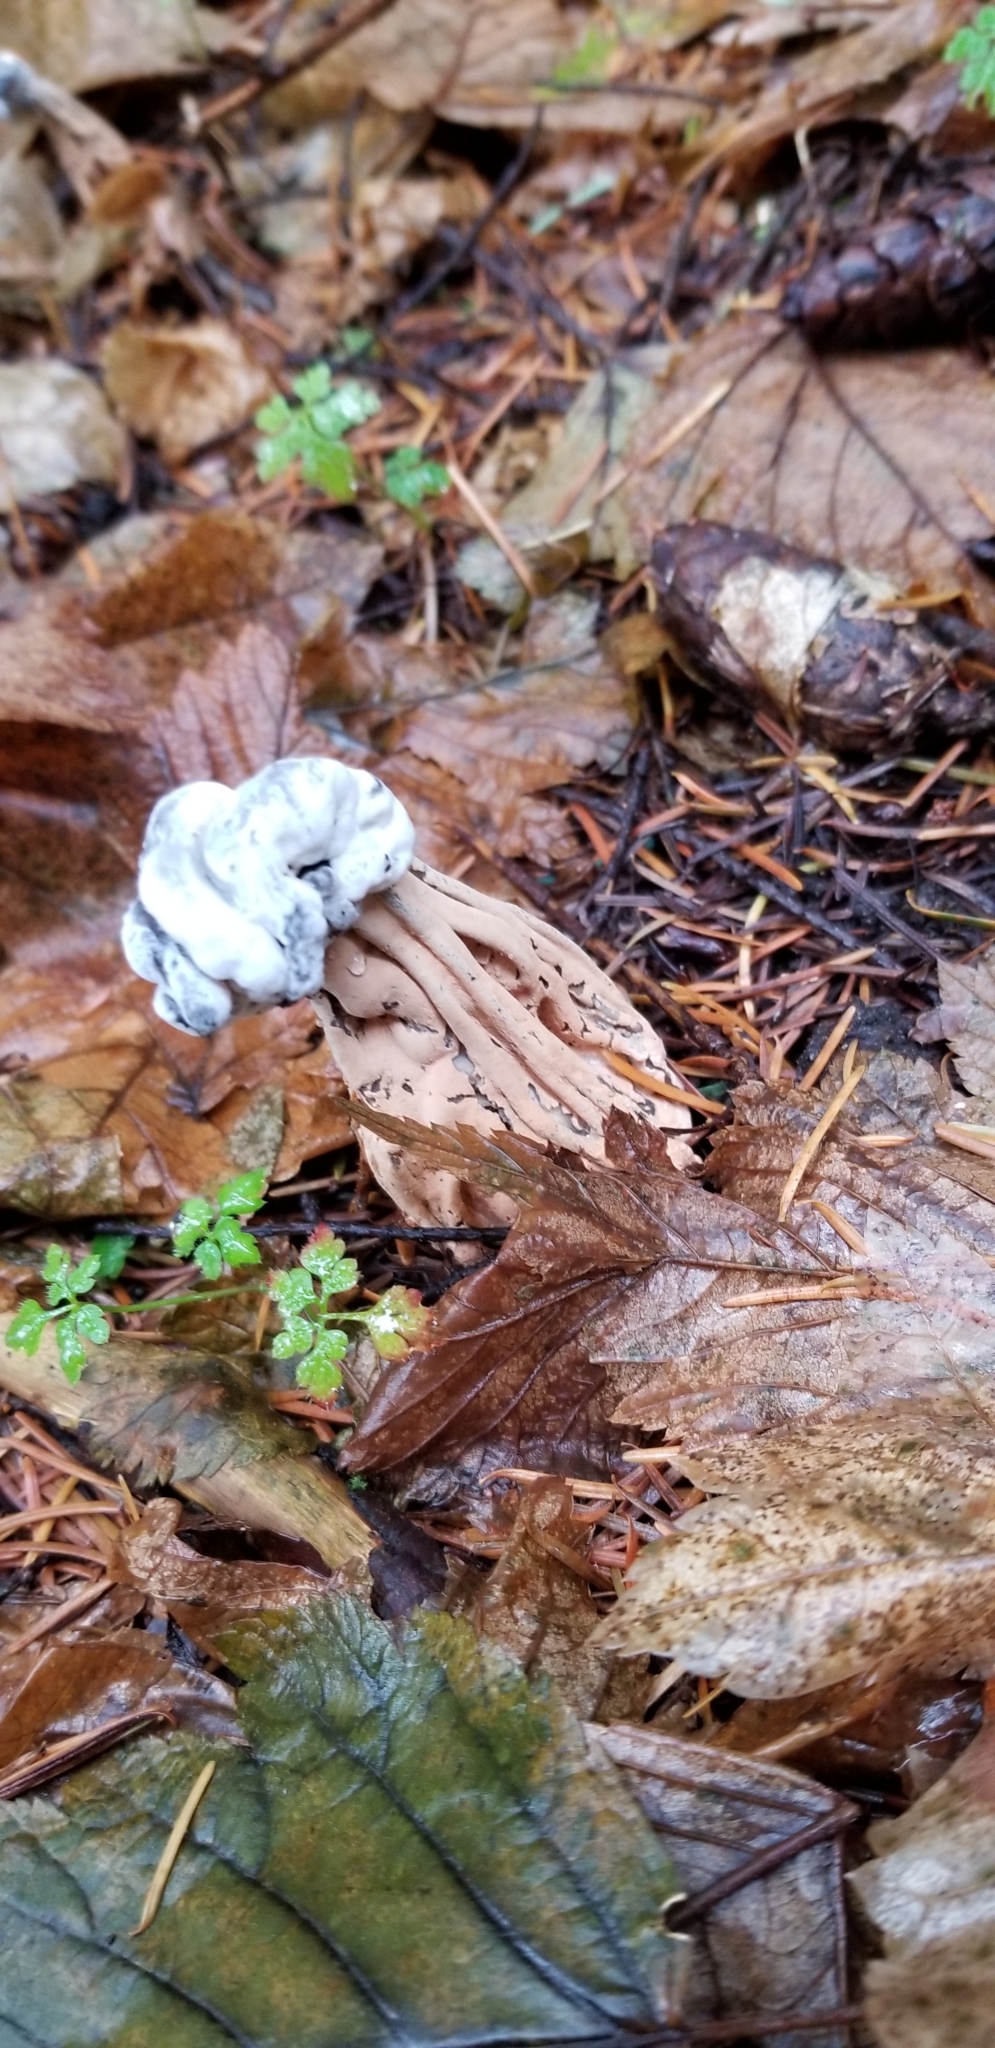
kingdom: Fungi
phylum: Ascomycota
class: Sordariomycetes
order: Hypocreales
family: Hypocreaceae
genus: Hypomyces
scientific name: Hypomyces cervinus
